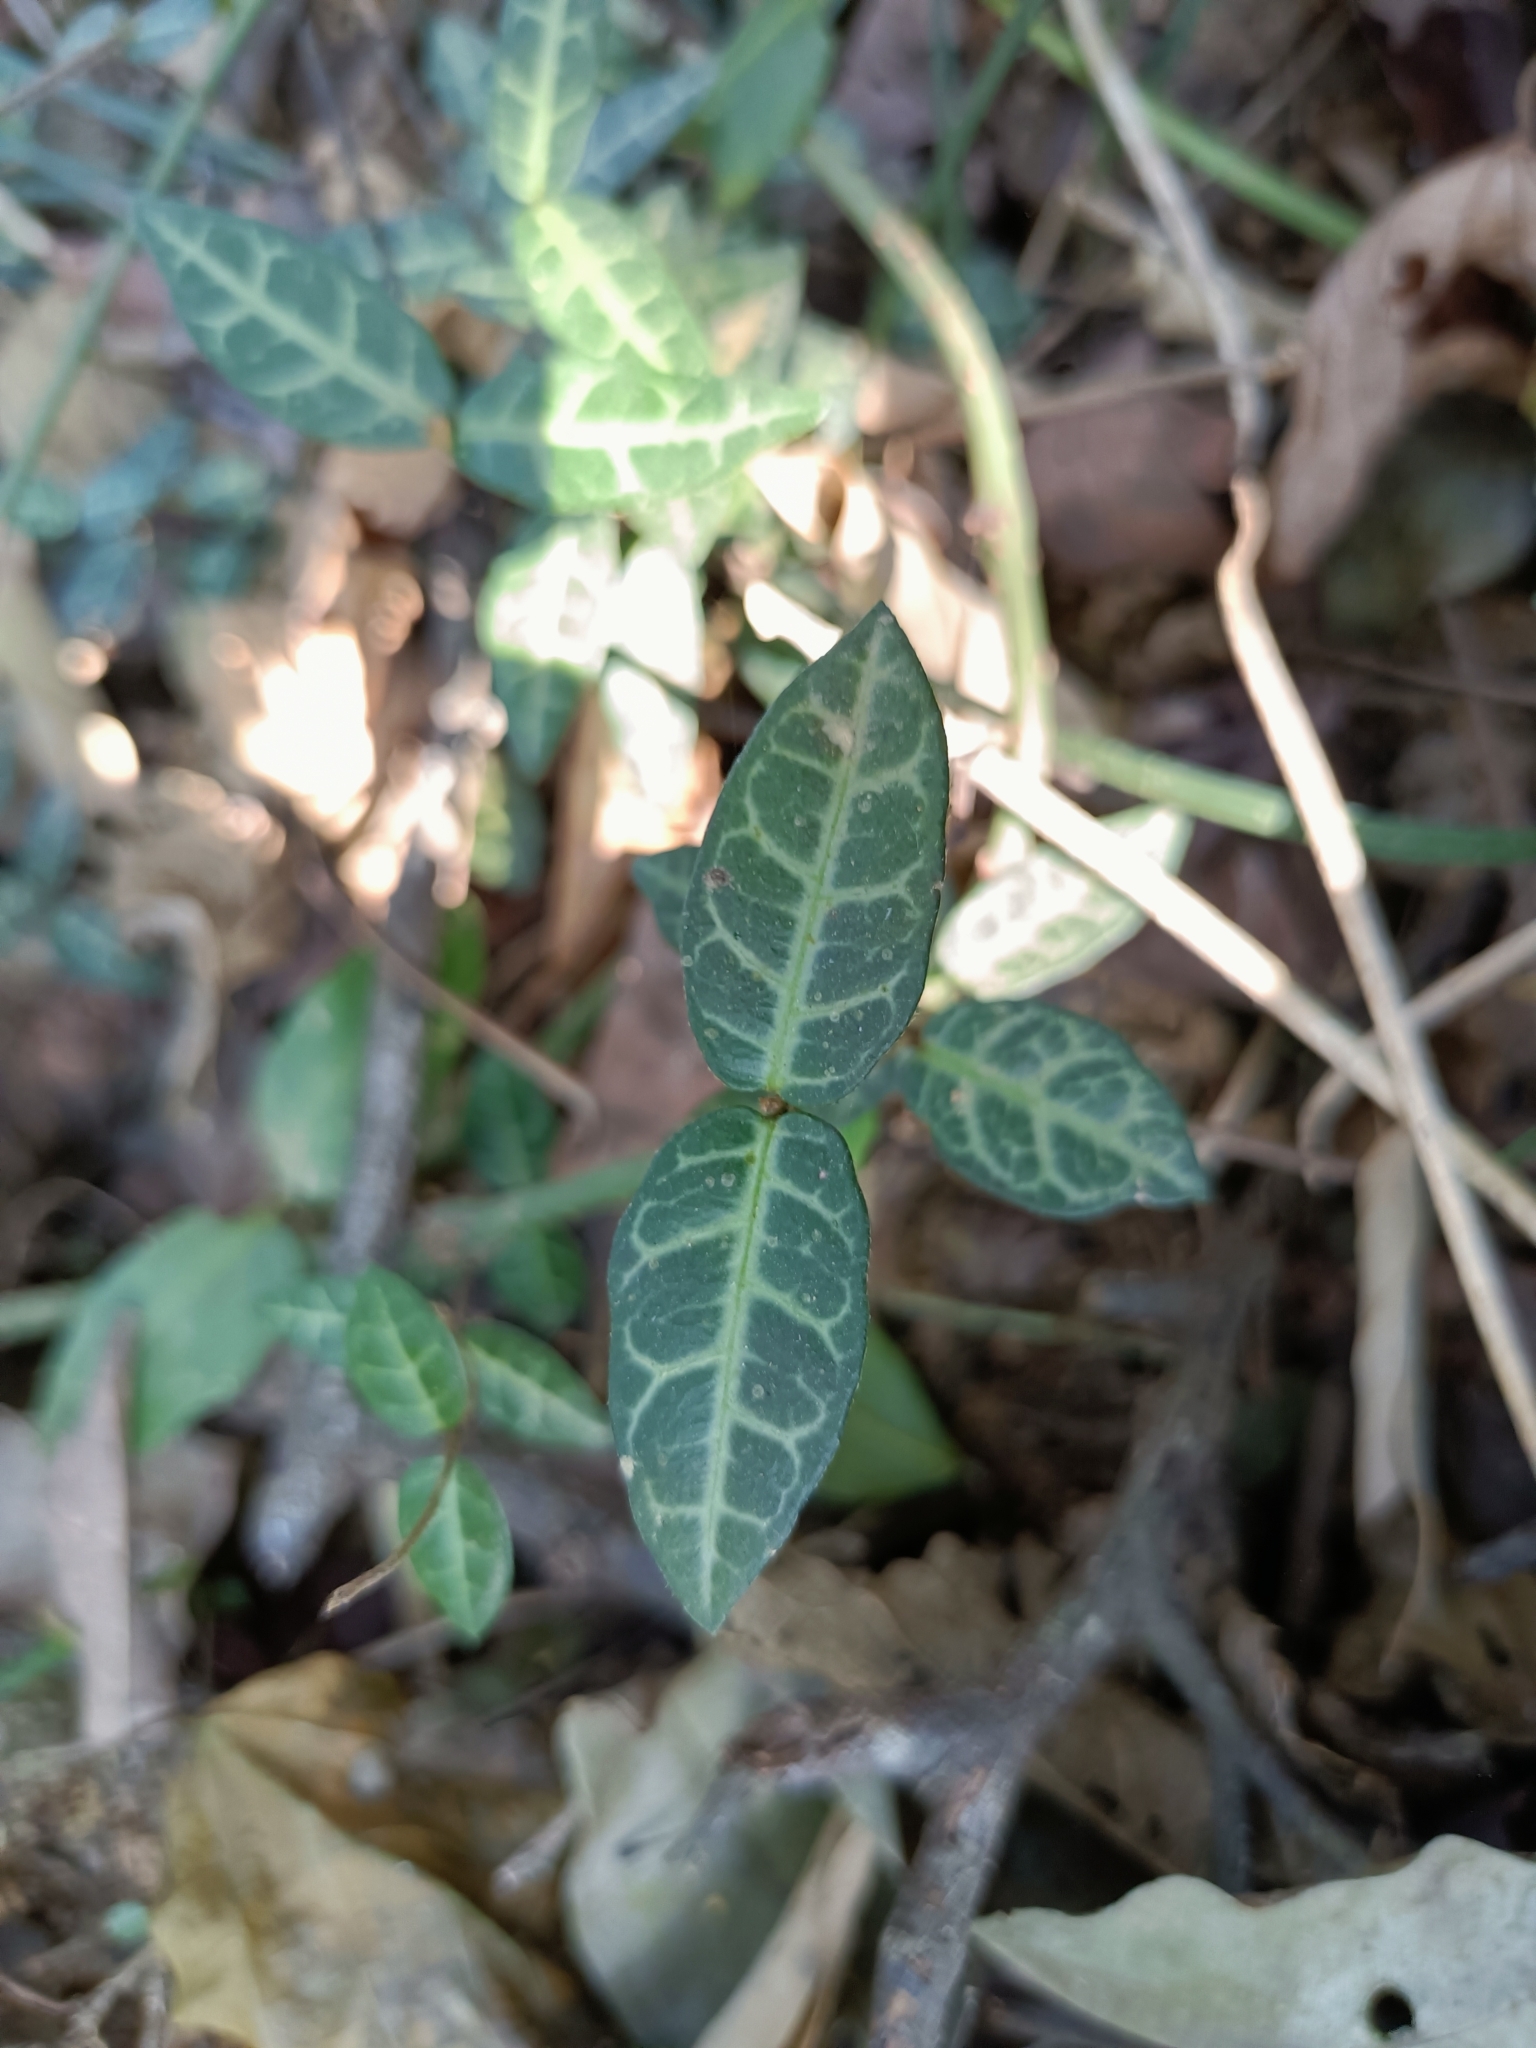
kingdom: Plantae
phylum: Tracheophyta
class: Magnoliopsida
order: Gentianales
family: Apocynaceae
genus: Trachelospermum
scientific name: Trachelospermum jasminoides
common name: Confederate jasmine
